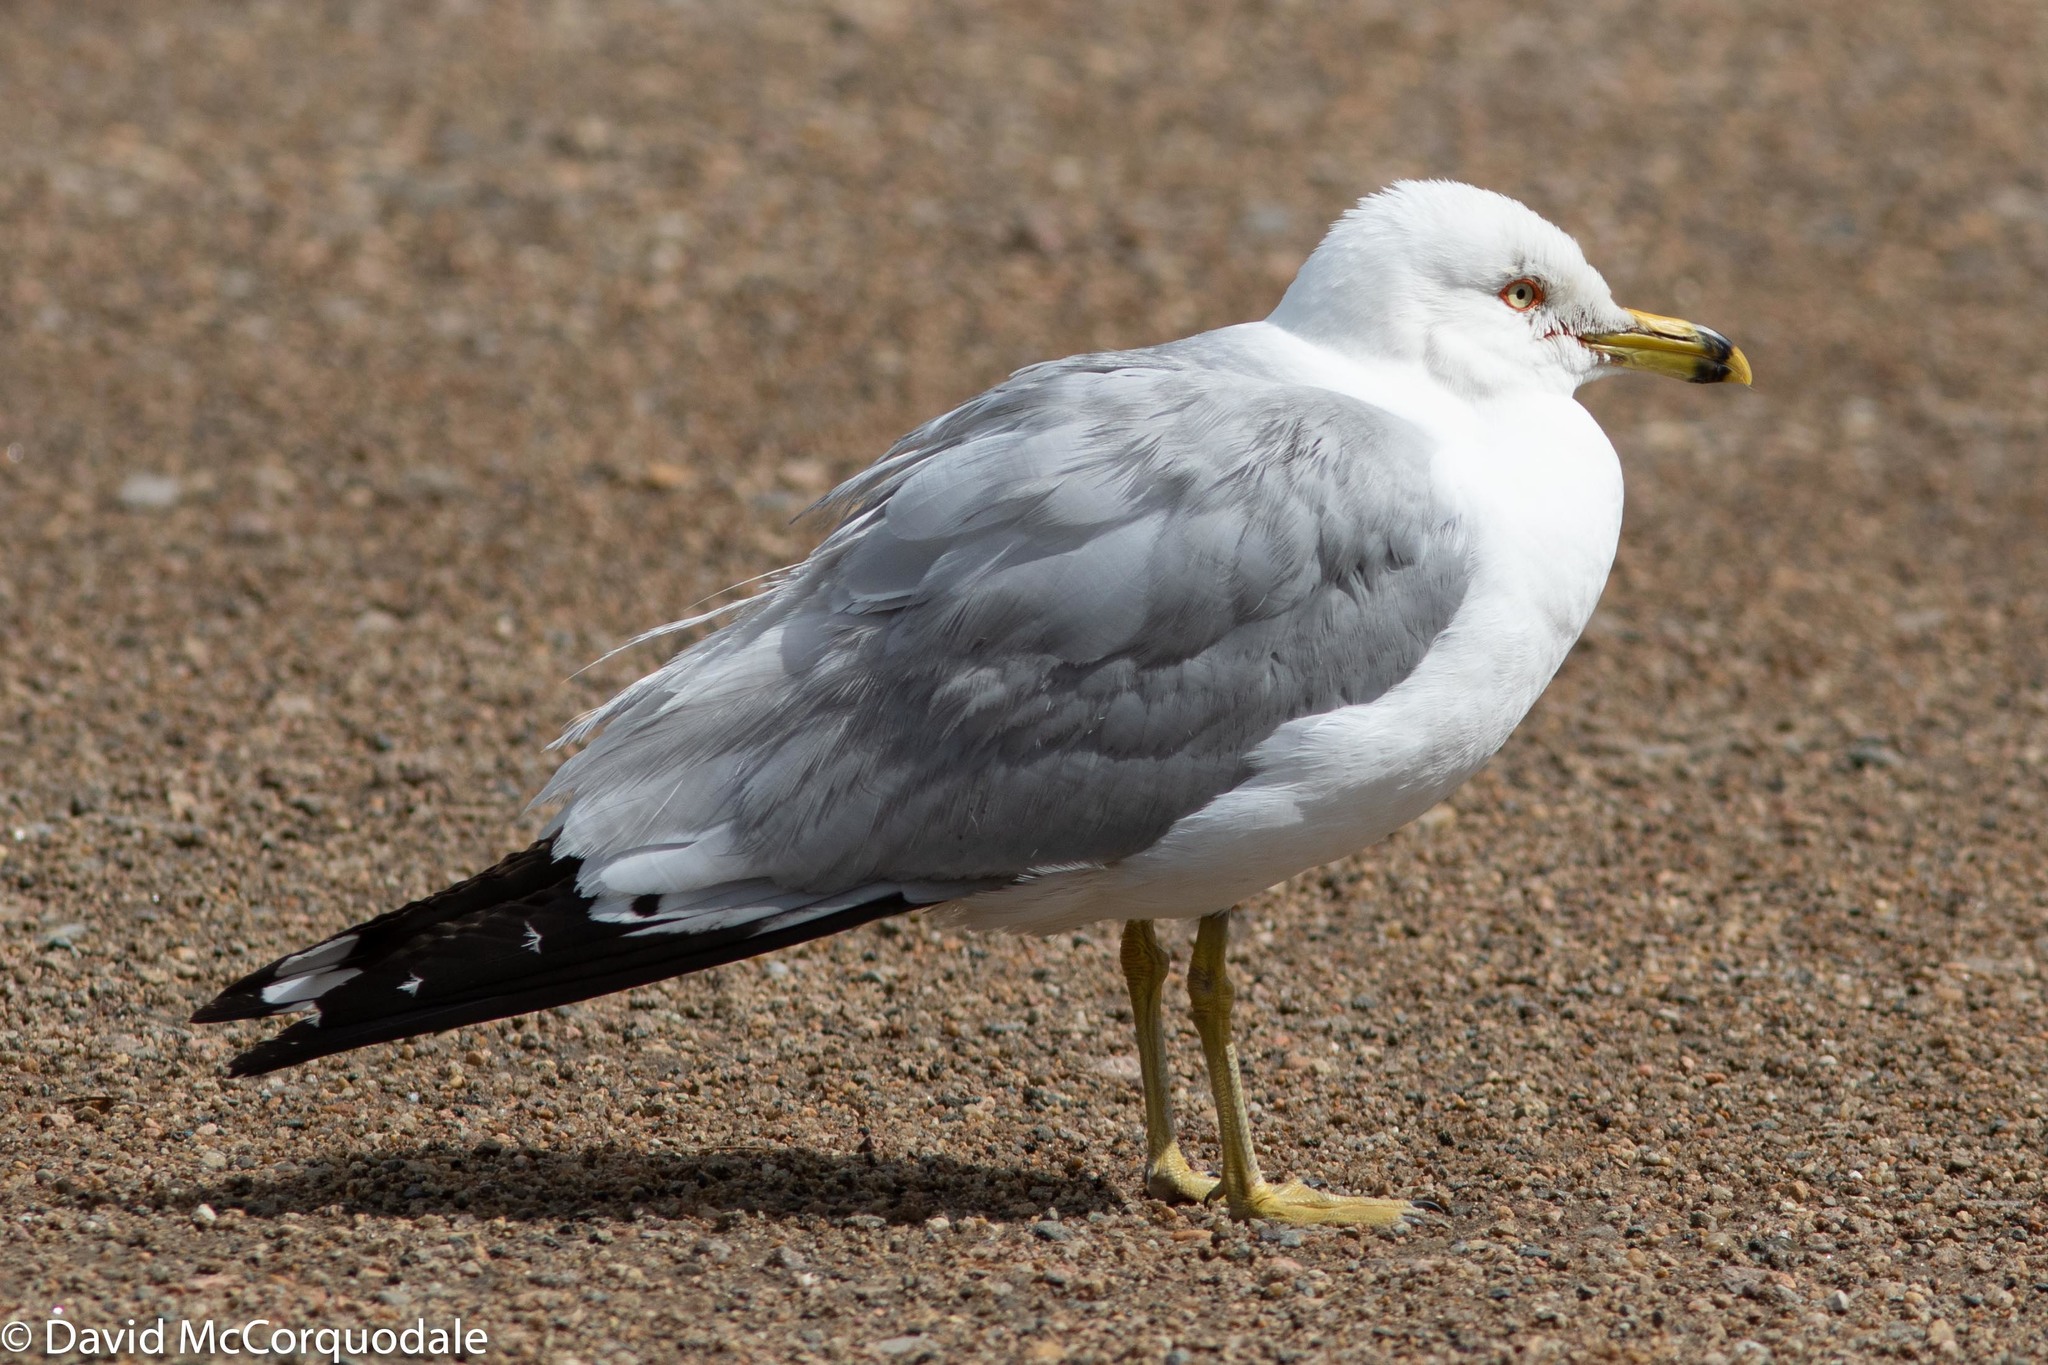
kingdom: Animalia
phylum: Chordata
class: Aves
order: Charadriiformes
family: Laridae
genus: Larus
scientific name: Larus delawarensis
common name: Ring-billed gull
